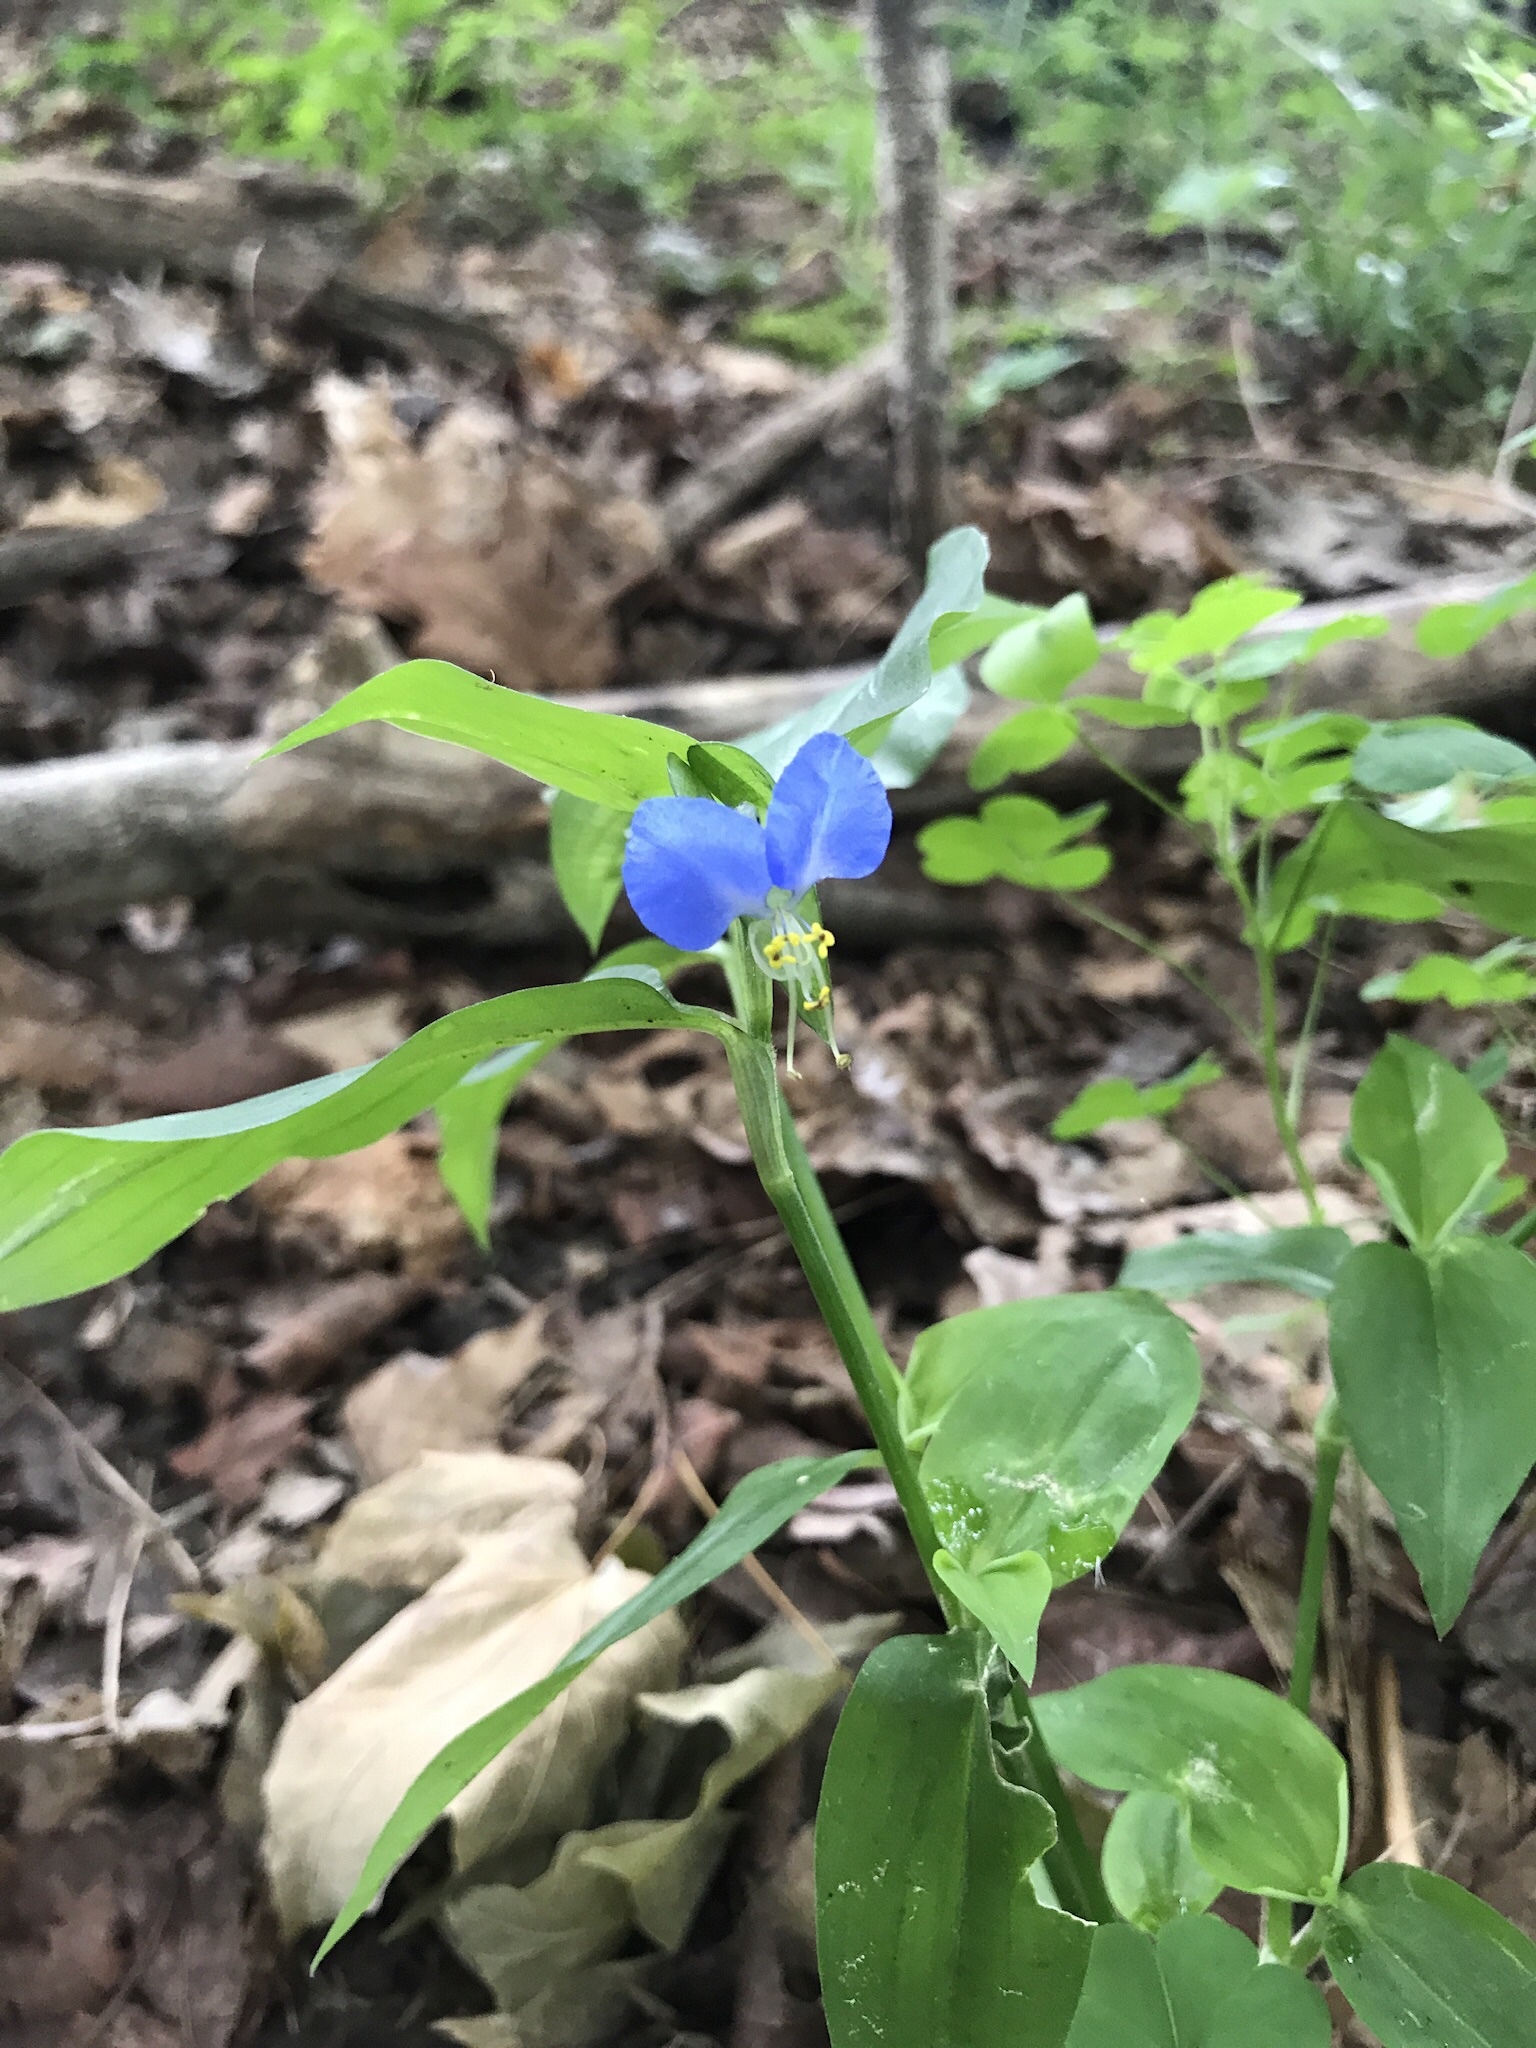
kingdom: Plantae
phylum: Tracheophyta
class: Liliopsida
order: Commelinales
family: Commelinaceae
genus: Commelina
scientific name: Commelina communis
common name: Asiatic dayflower
